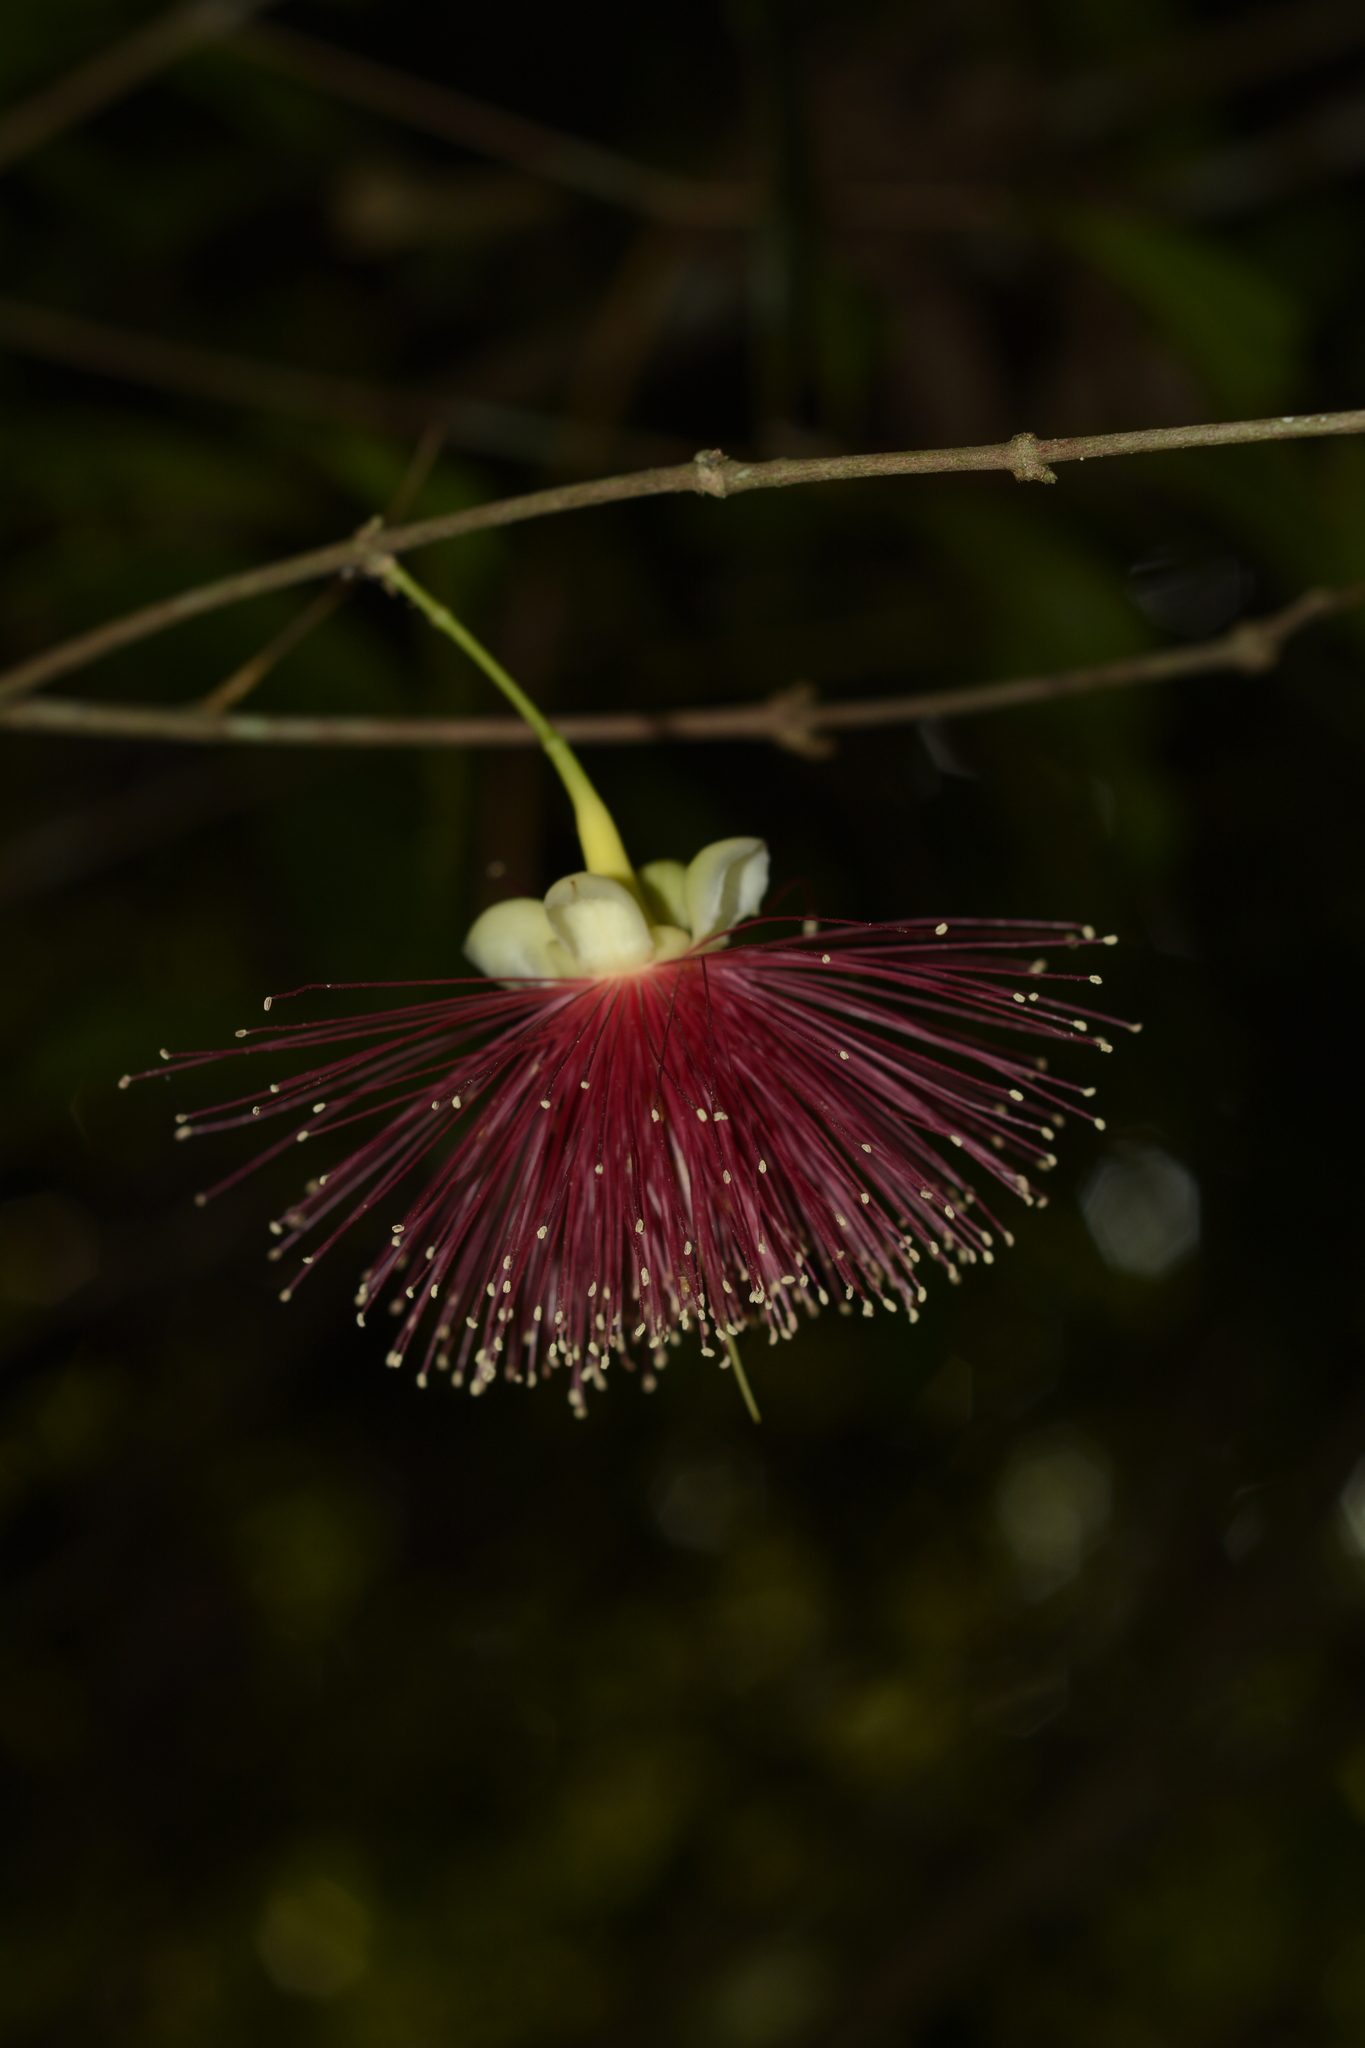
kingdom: Plantae
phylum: Tracheophyta
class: Magnoliopsida
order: Myrtales
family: Myrtaceae
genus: Syzygium
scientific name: Syzygium laetum
